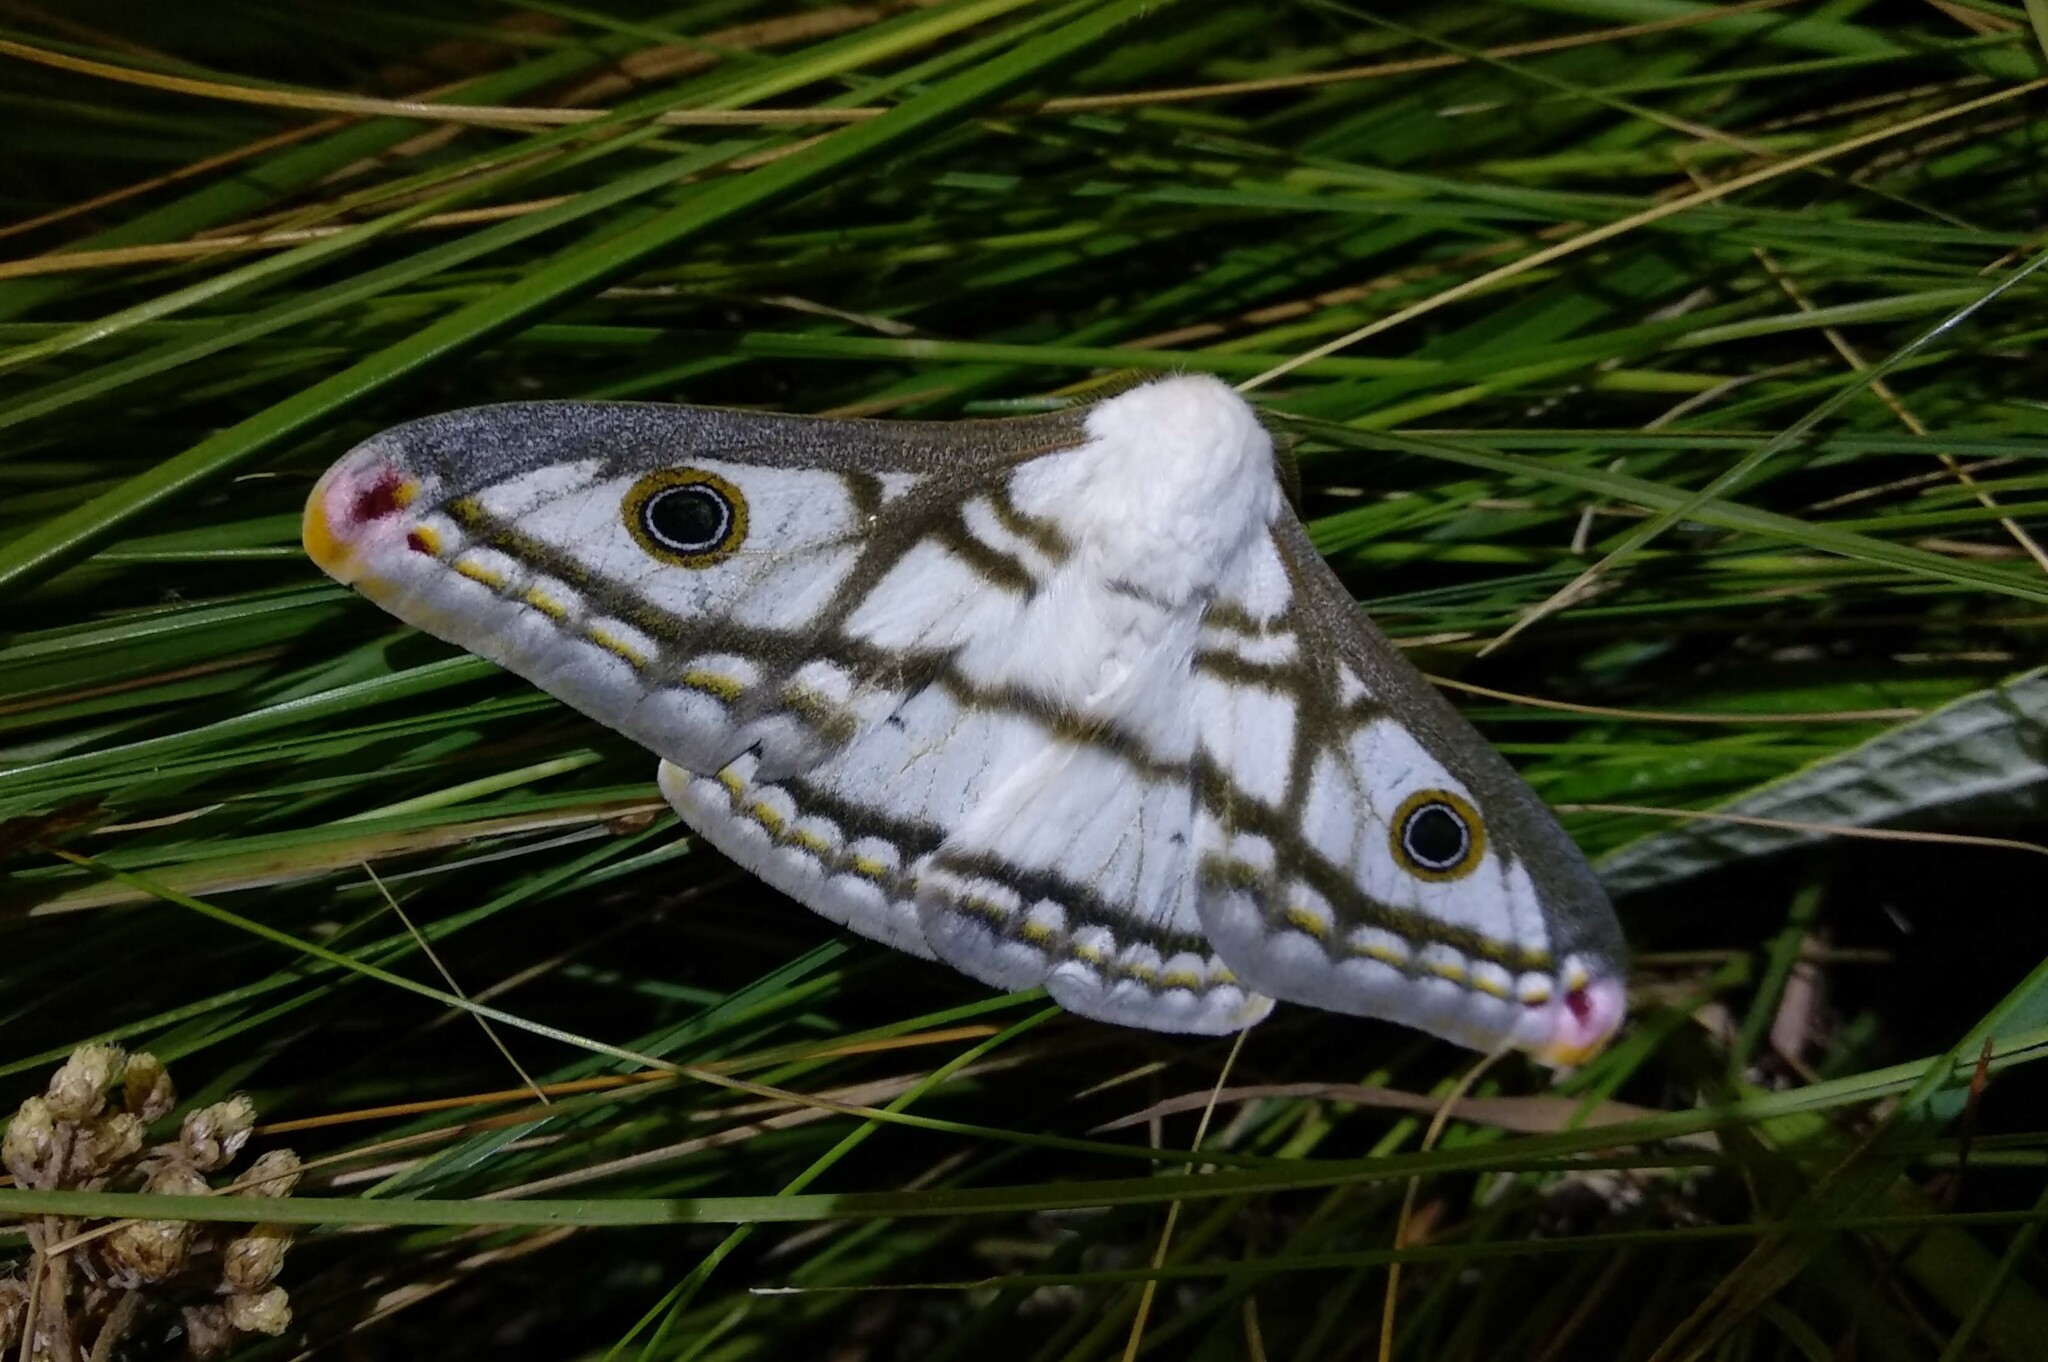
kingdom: Animalia
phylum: Arthropoda
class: Insecta
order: Lepidoptera
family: Saturniidae
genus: Heniocha
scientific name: Heniocha marnois
